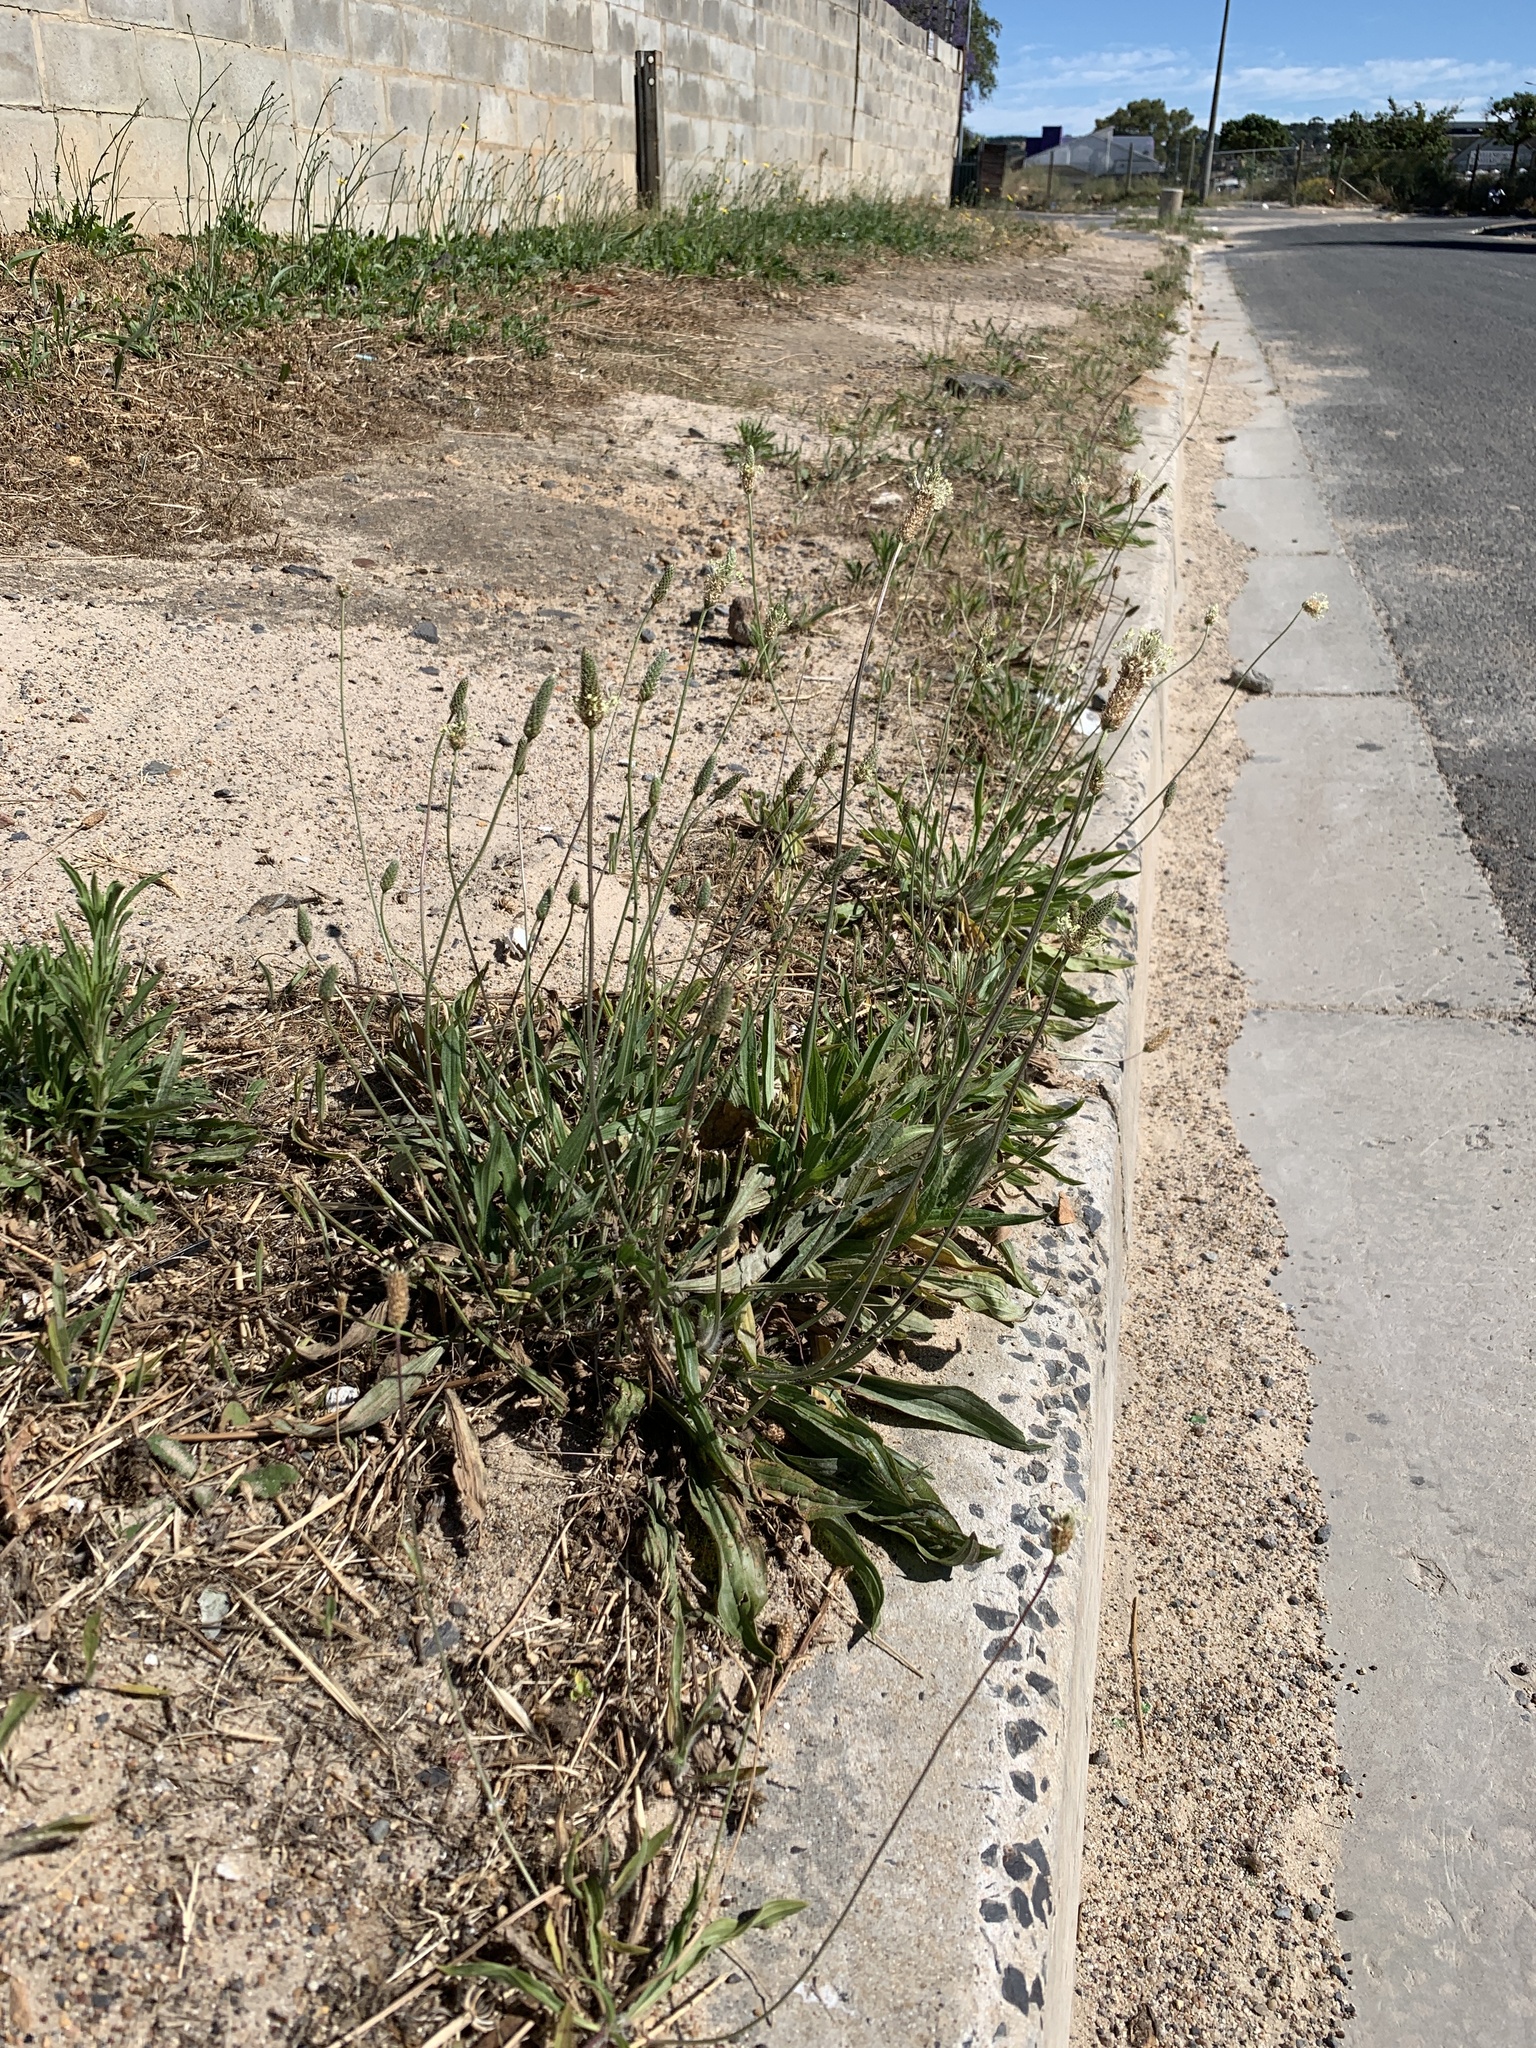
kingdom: Plantae
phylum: Tracheophyta
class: Magnoliopsida
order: Lamiales
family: Plantaginaceae
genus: Plantago
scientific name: Plantago lanceolata
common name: Ribwort plantain
